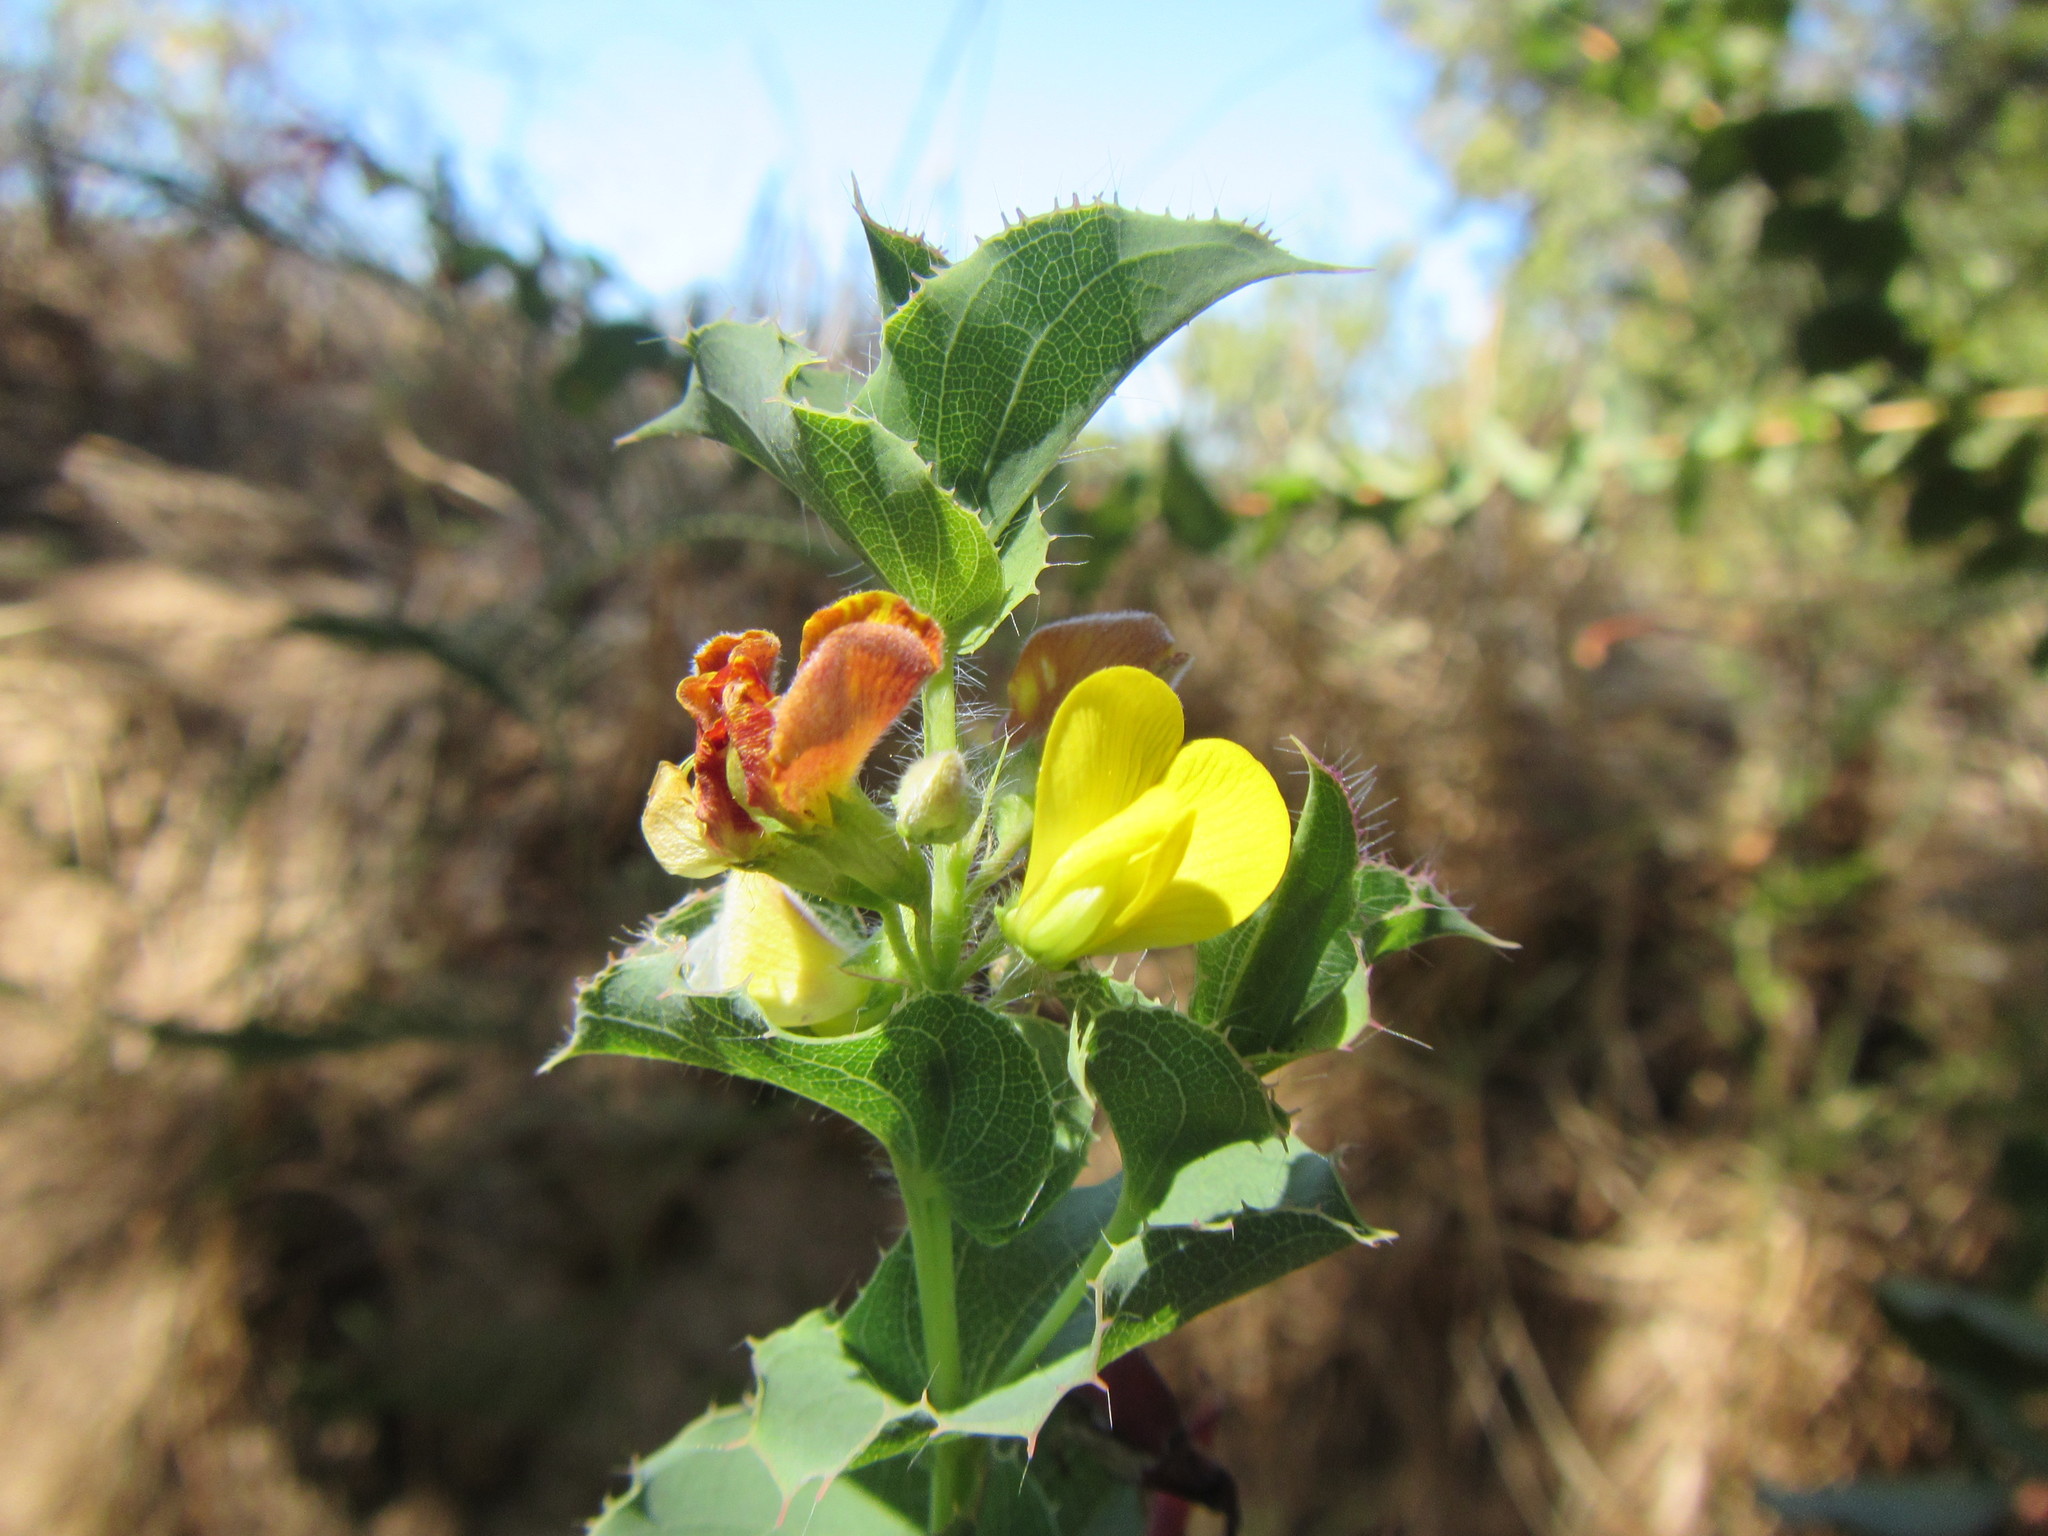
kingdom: Plantae
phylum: Tracheophyta
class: Magnoliopsida
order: Fabales
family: Fabaceae
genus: Aspalathus
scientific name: Aspalathus perfoliata
